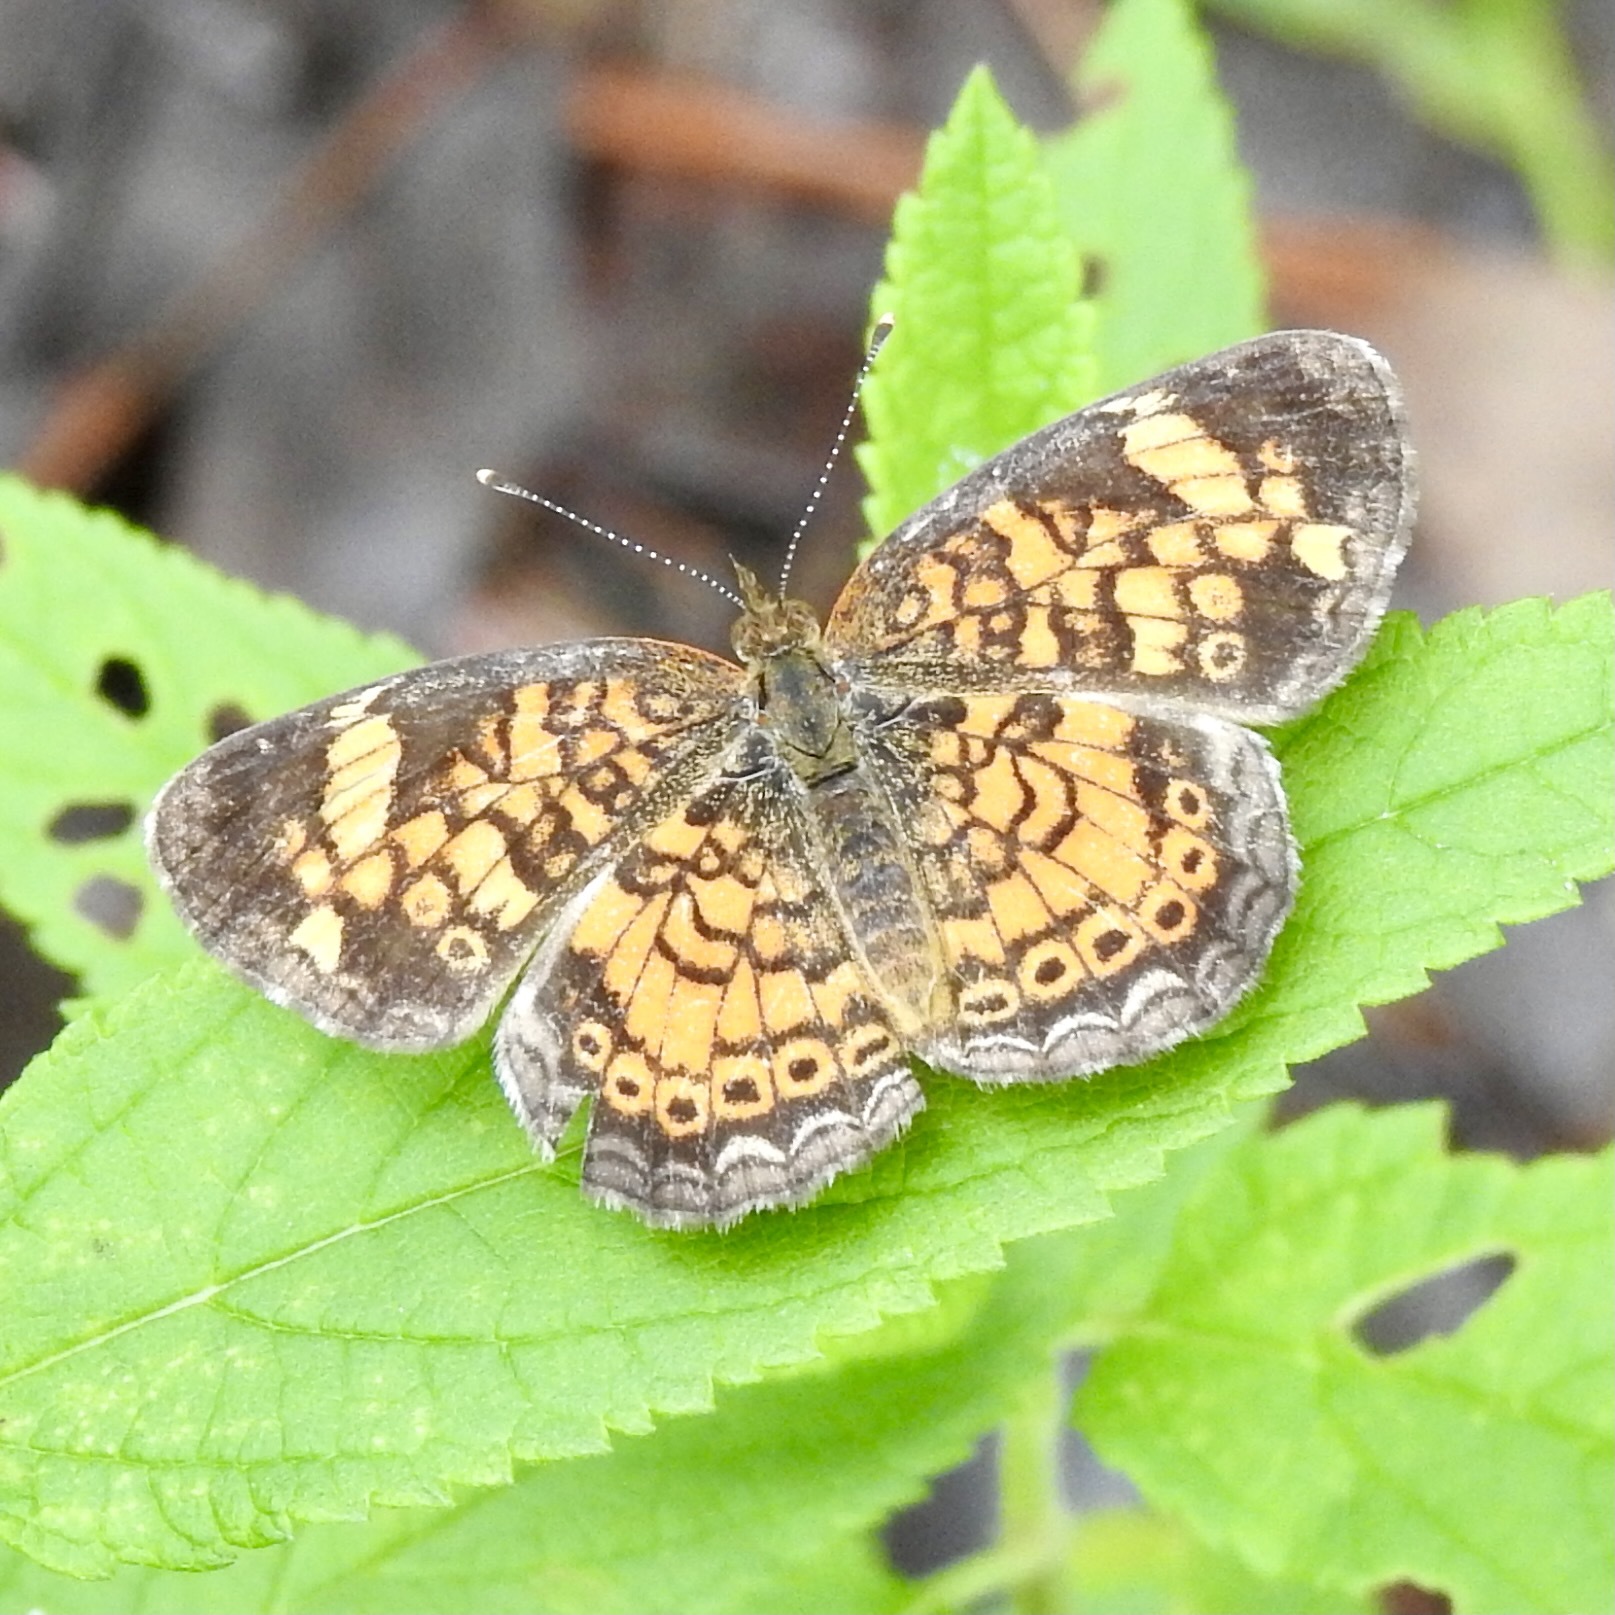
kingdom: Animalia
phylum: Arthropoda
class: Insecta
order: Lepidoptera
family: Nymphalidae
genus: Phyciodes
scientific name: Phyciodes tharos
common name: Pearl crescent
